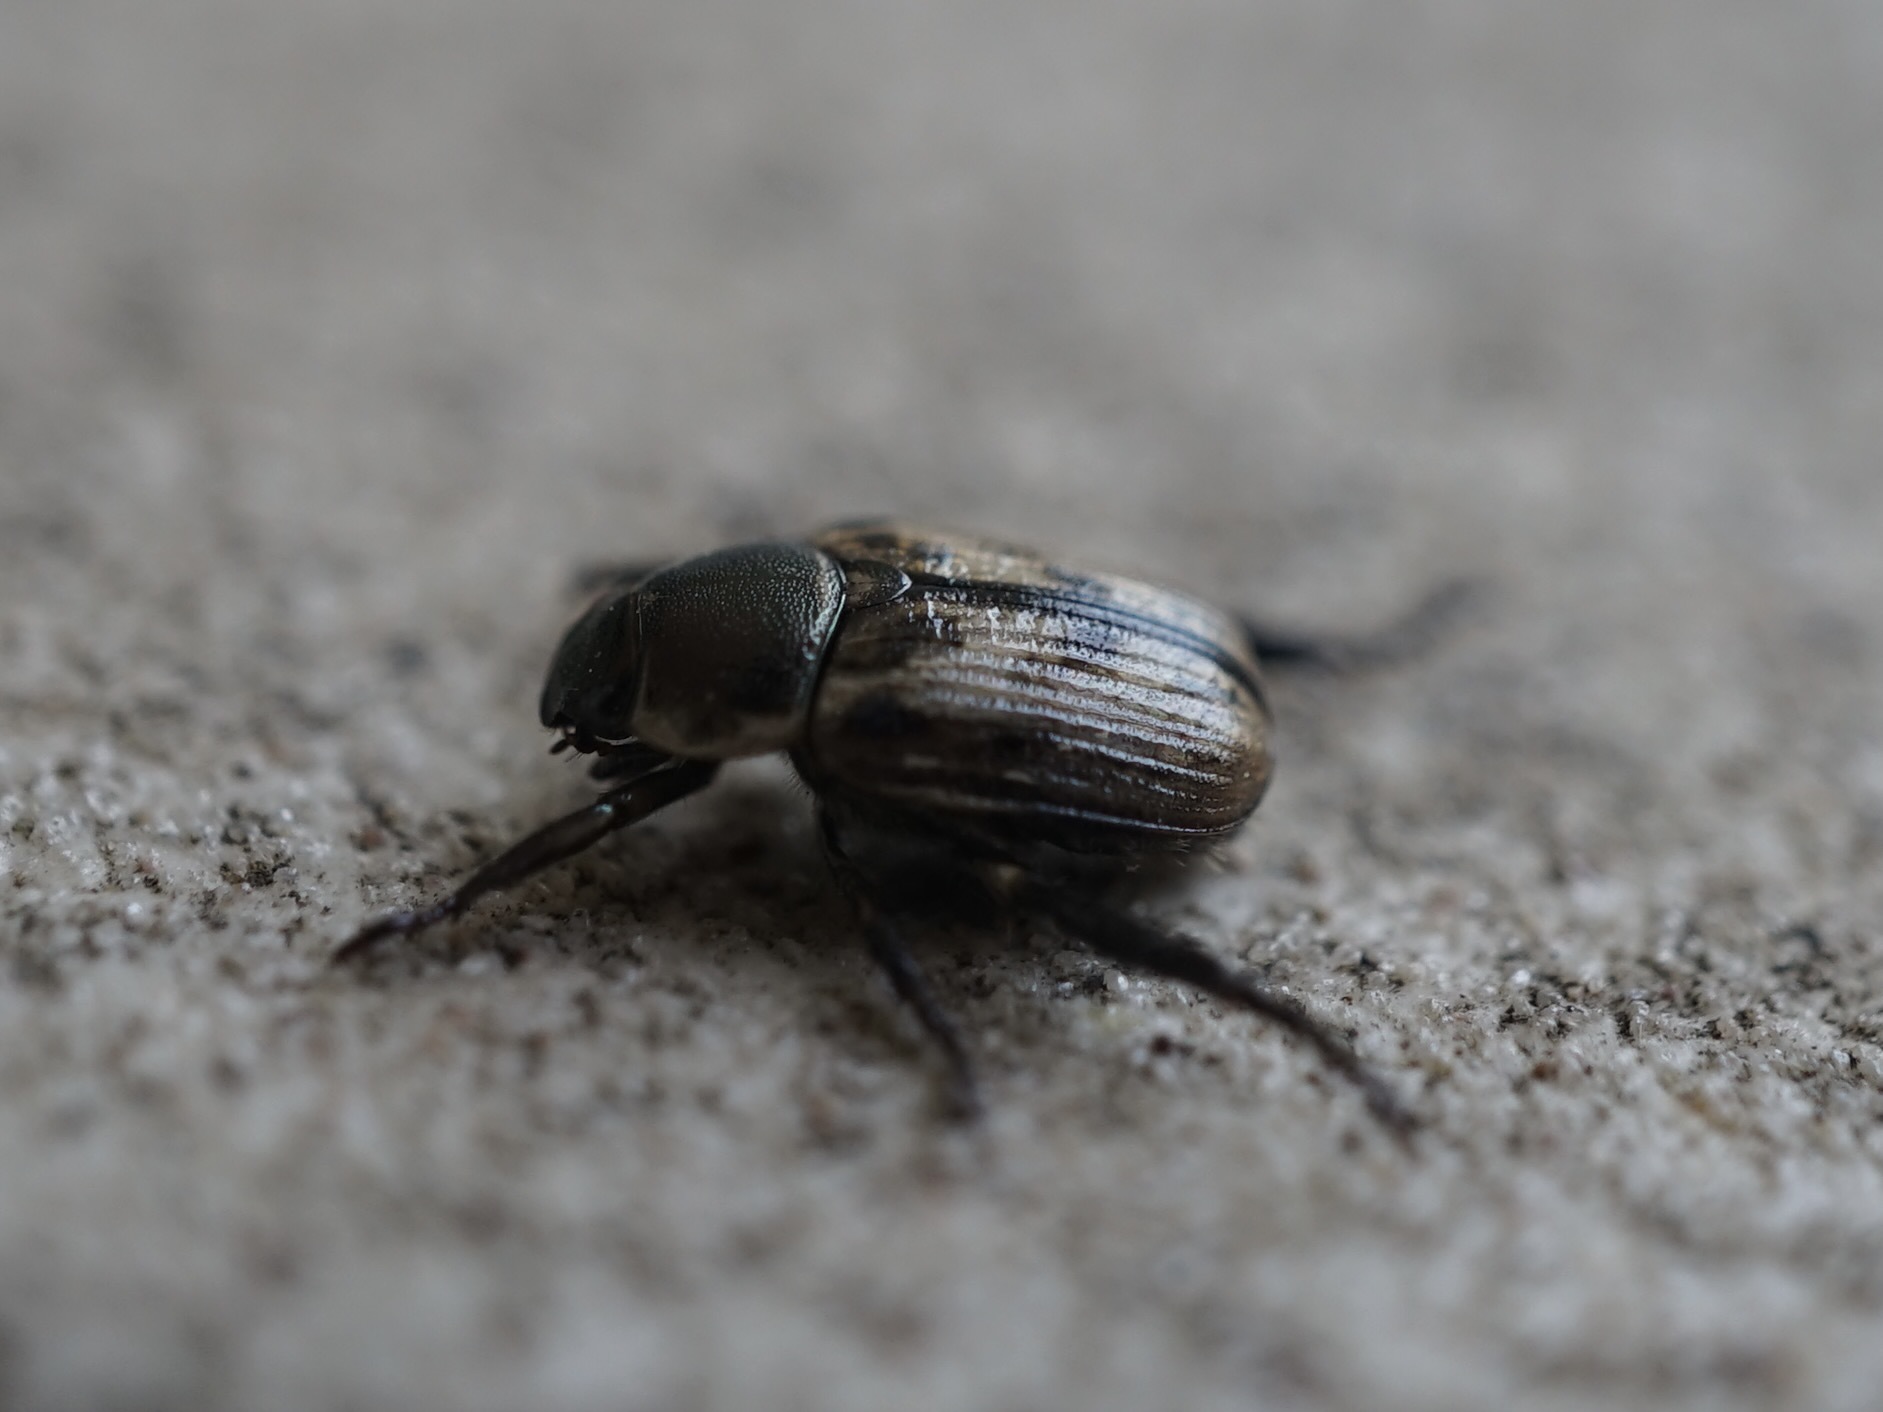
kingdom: Animalia
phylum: Arthropoda
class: Insecta
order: Coleoptera
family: Scarabaeidae
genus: Exomala
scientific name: Exomala orientalis
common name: Oriental beetle
